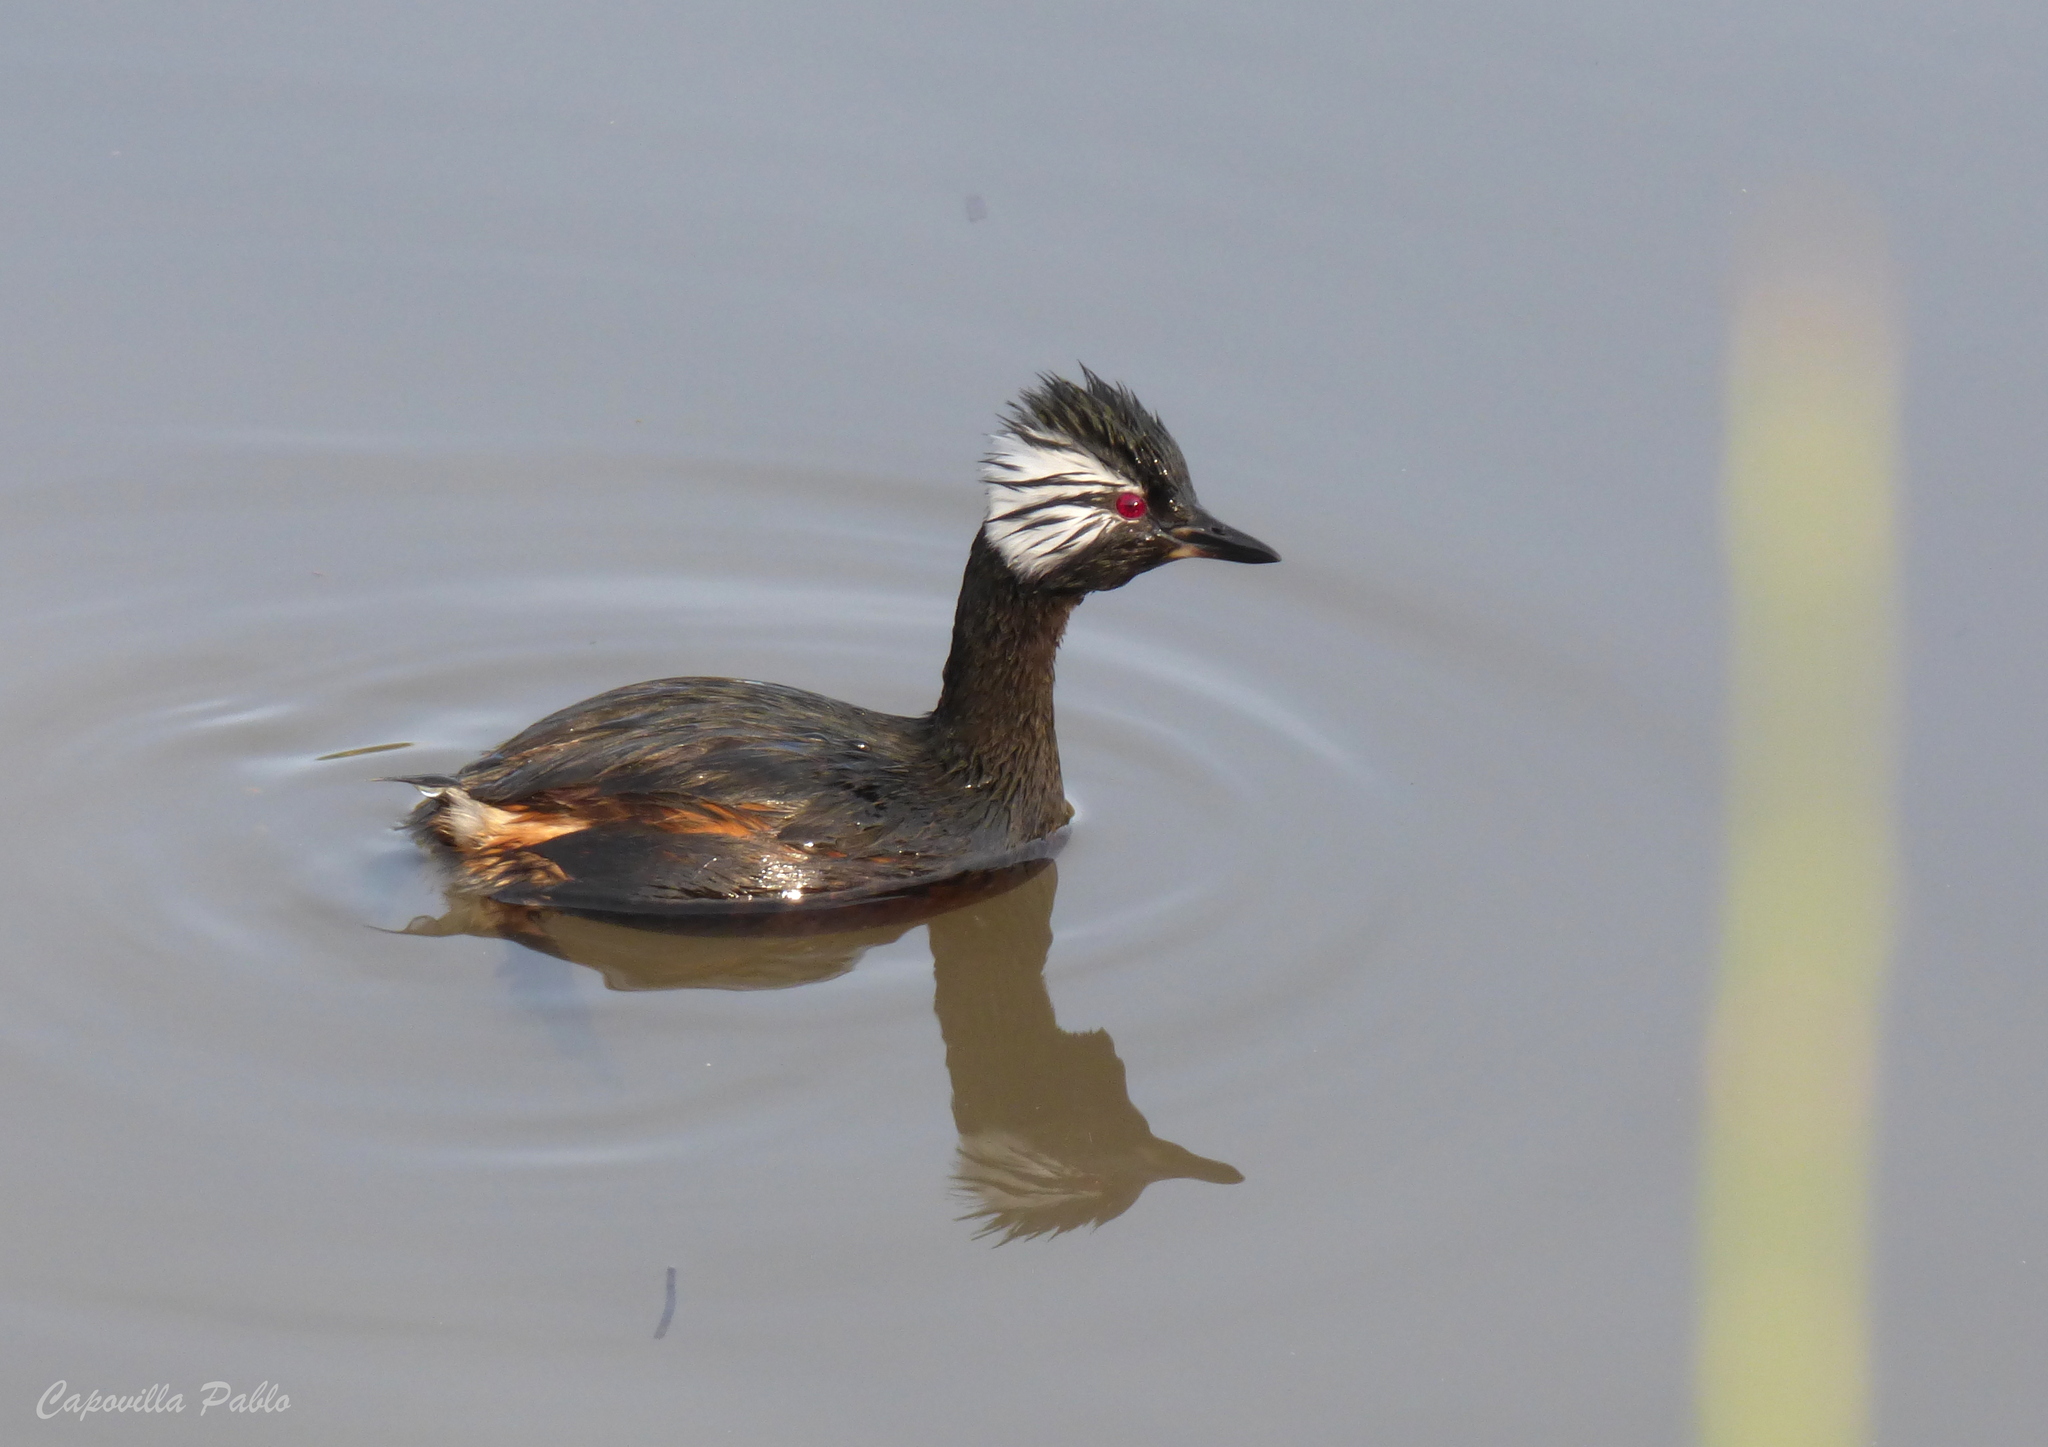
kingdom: Animalia
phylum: Chordata
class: Aves
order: Podicipediformes
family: Podicipedidae
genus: Rollandia
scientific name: Rollandia rolland
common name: White-tufted grebe
